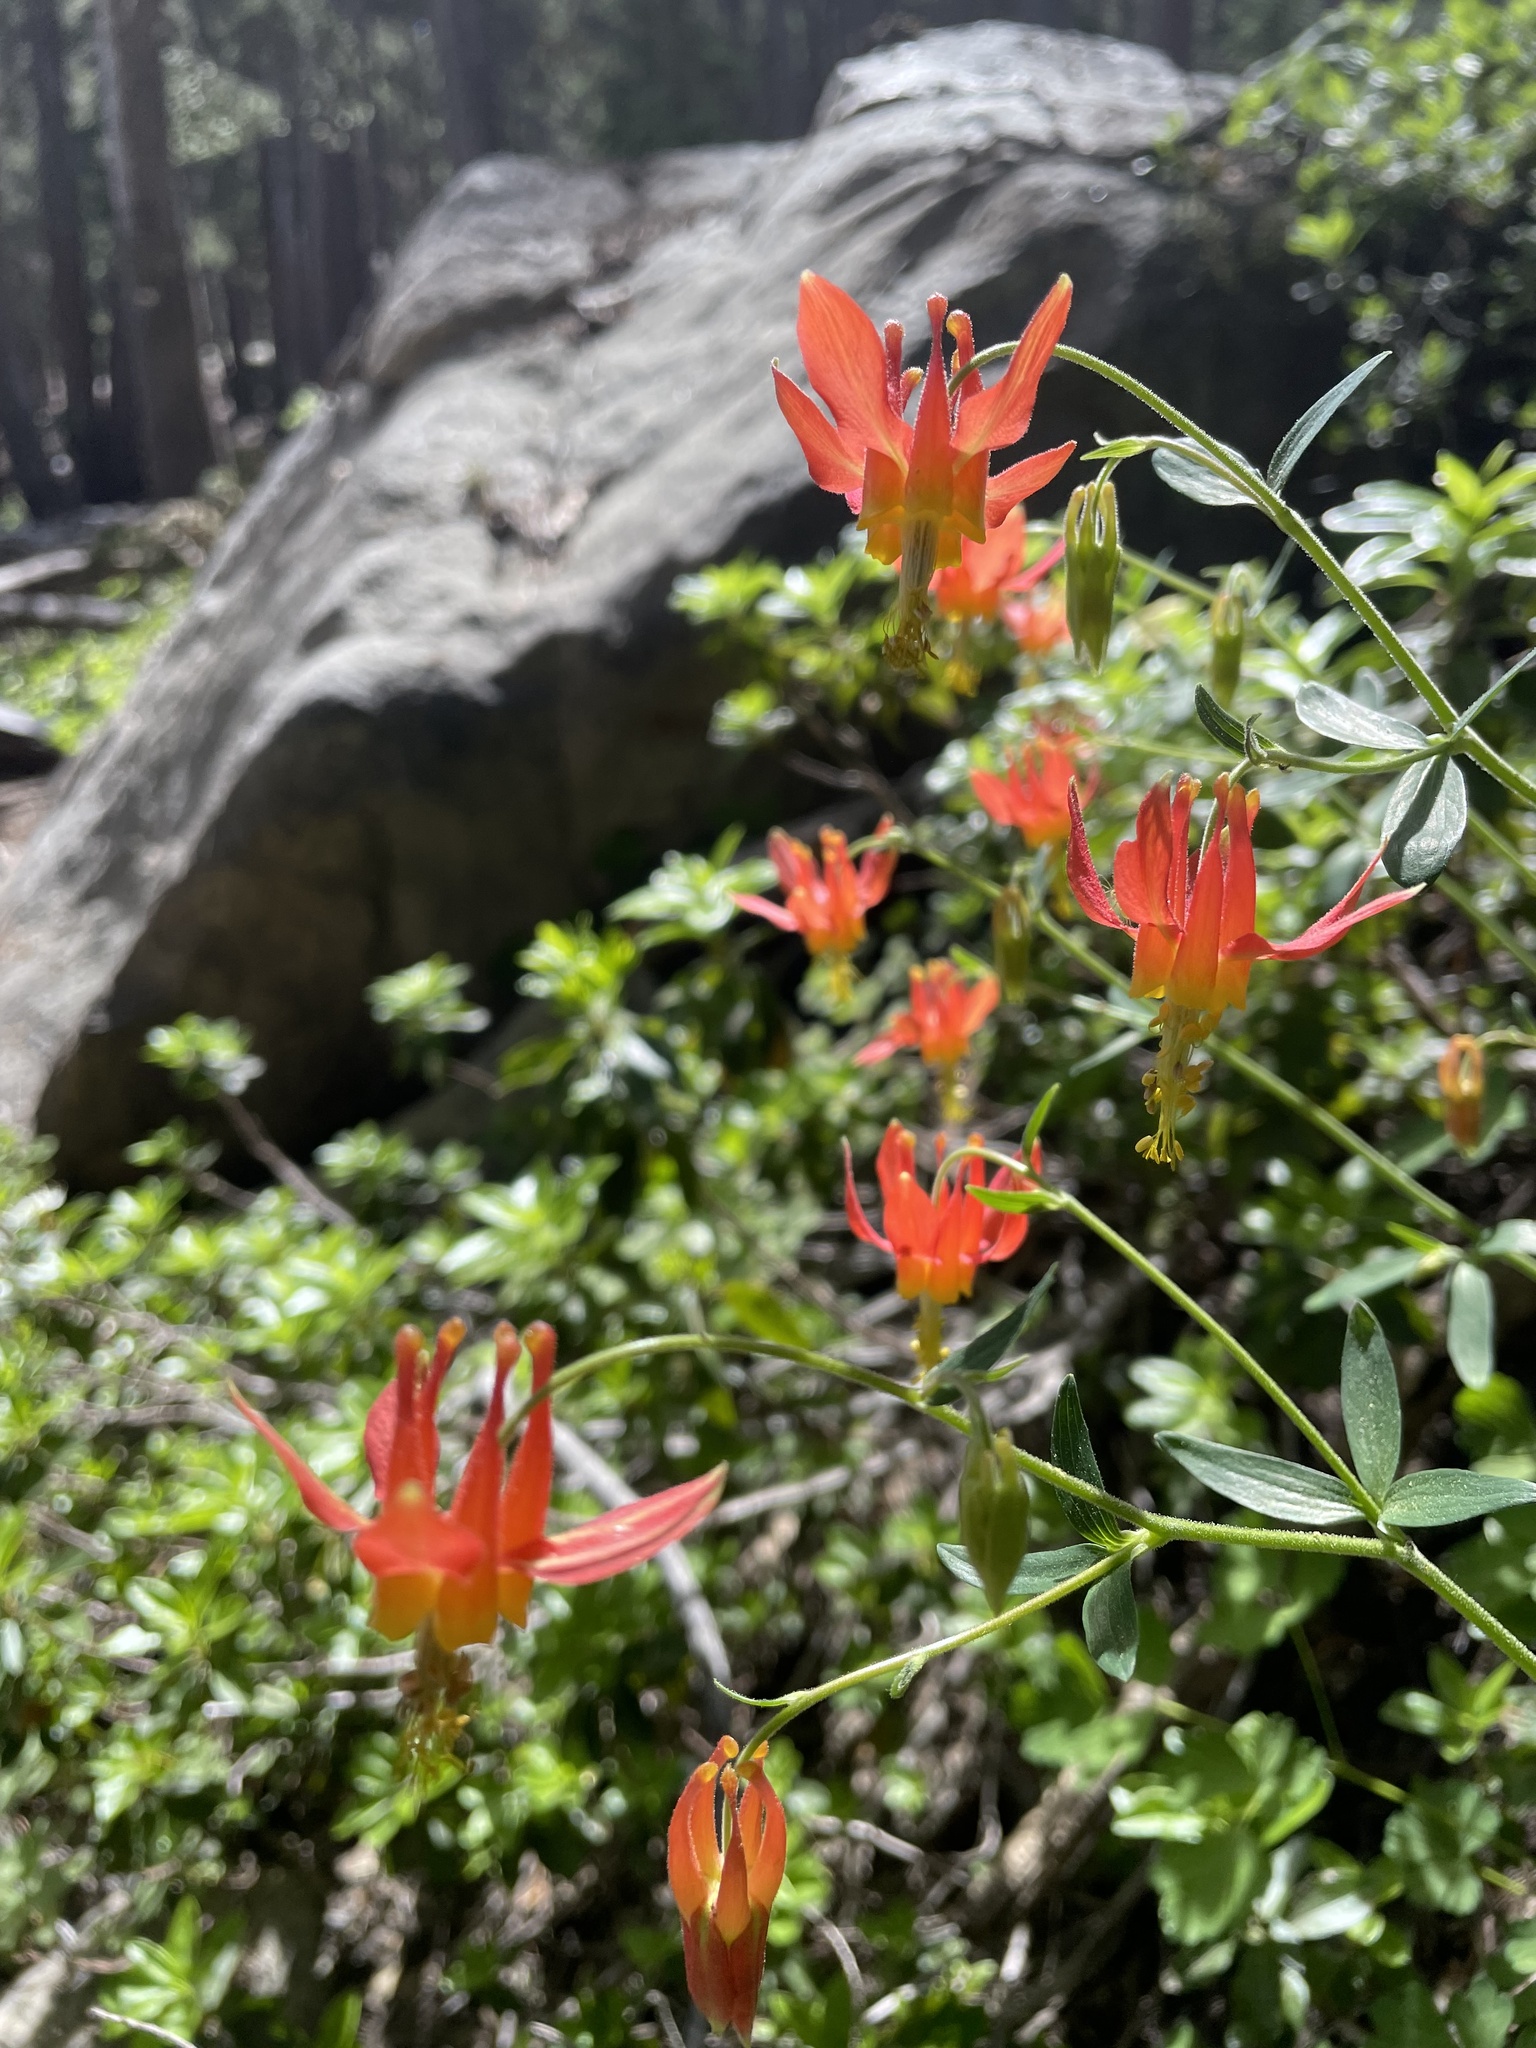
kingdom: Plantae
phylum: Tracheophyta
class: Magnoliopsida
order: Ranunculales
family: Ranunculaceae
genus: Aquilegia
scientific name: Aquilegia formosa
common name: Sitka columbine
